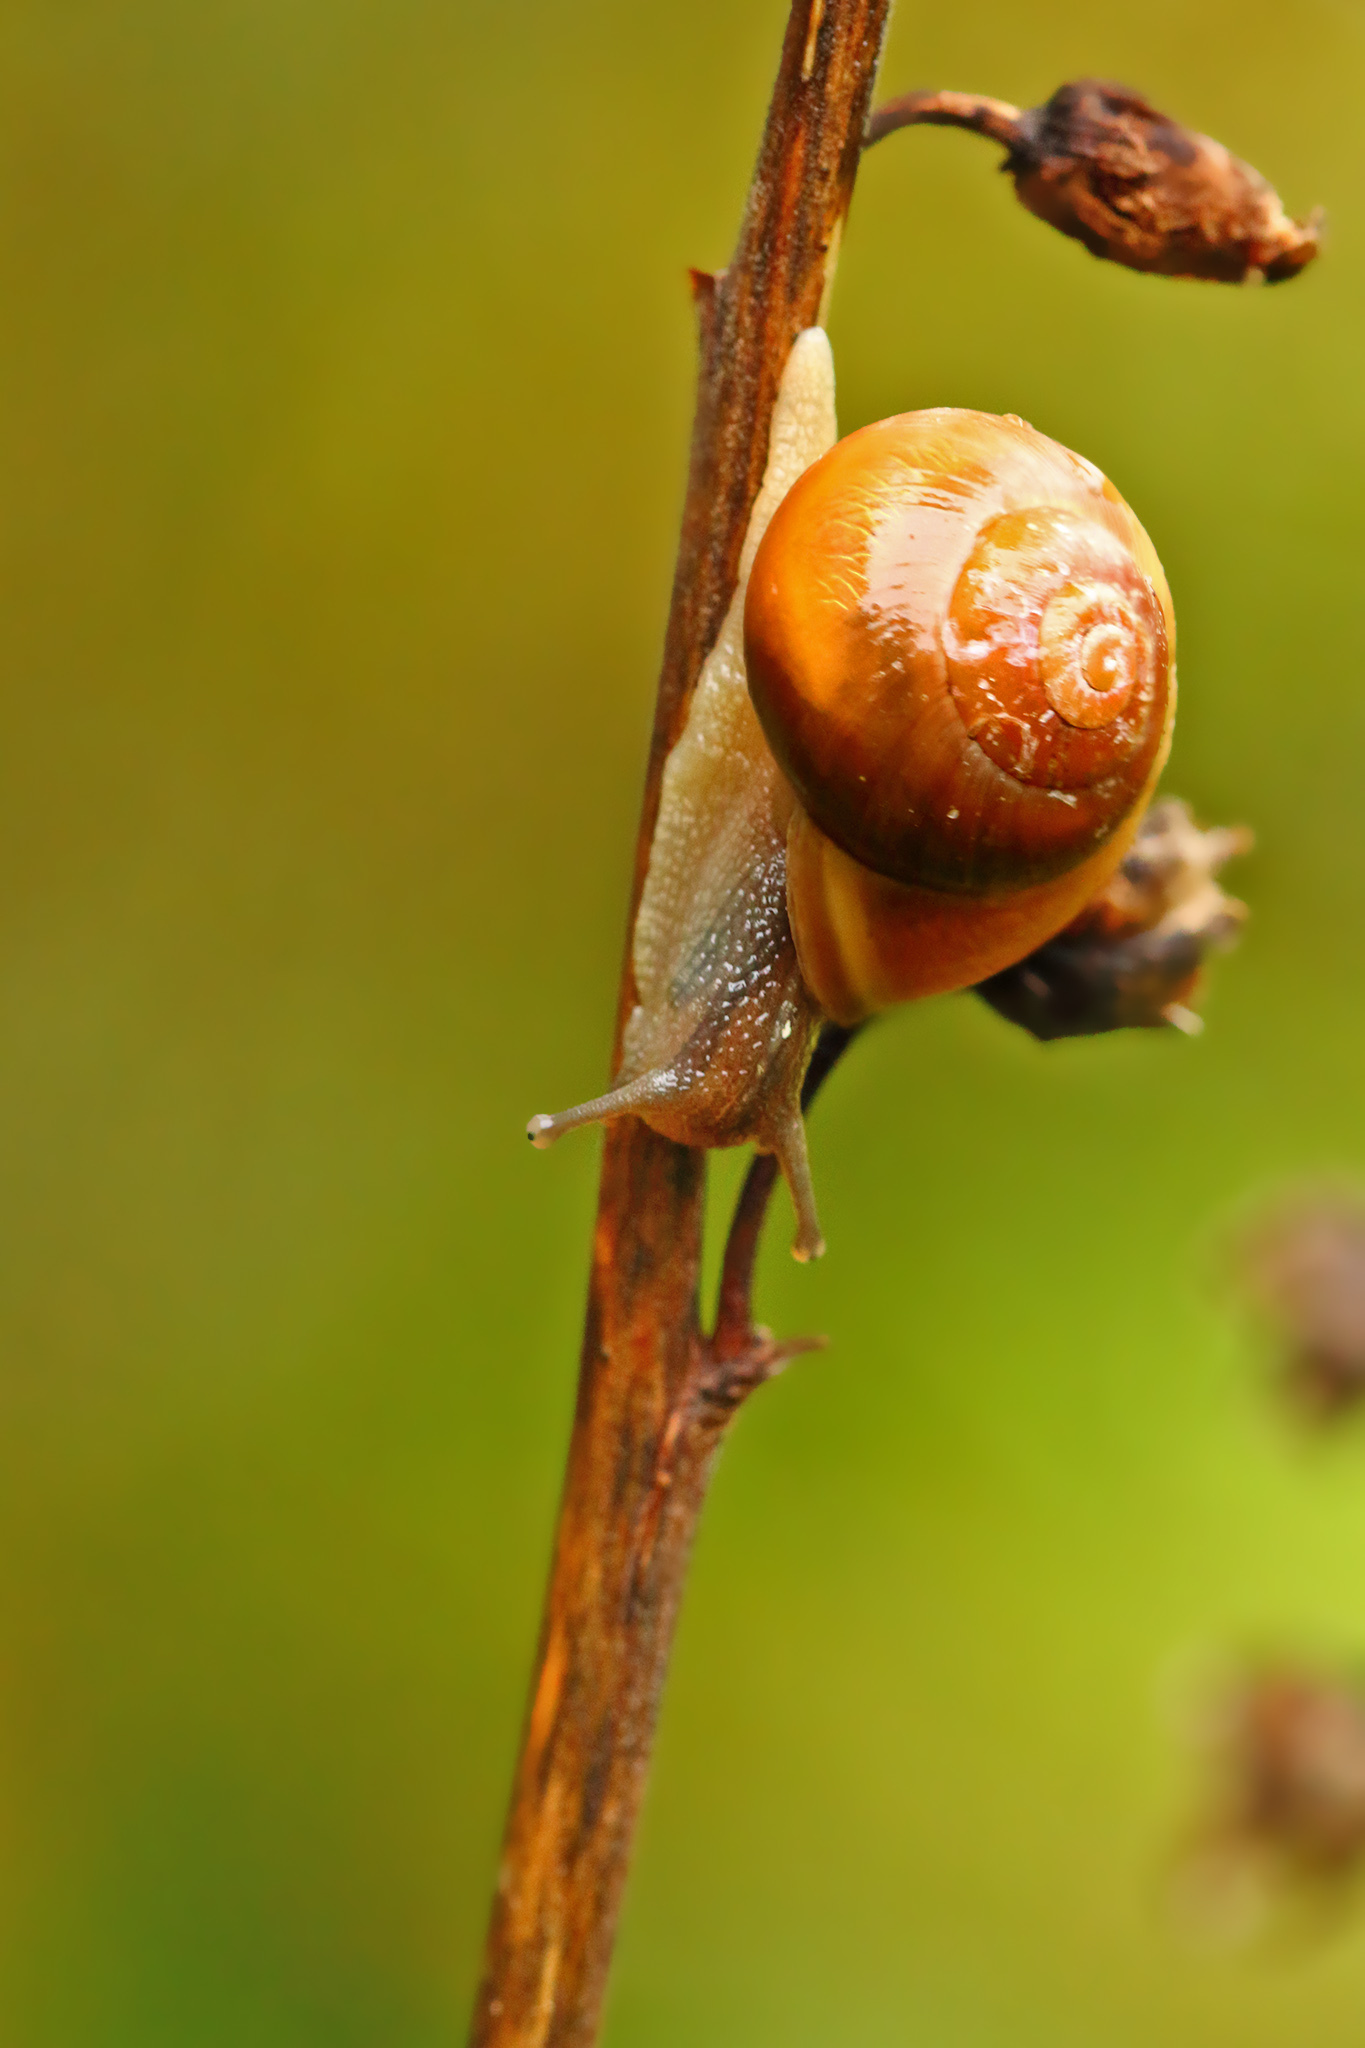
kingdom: Animalia
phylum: Mollusca
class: Gastropoda
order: Stylommatophora
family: Helicidae
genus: Cepaea
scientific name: Cepaea hortensis
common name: White-lip gardensnail
